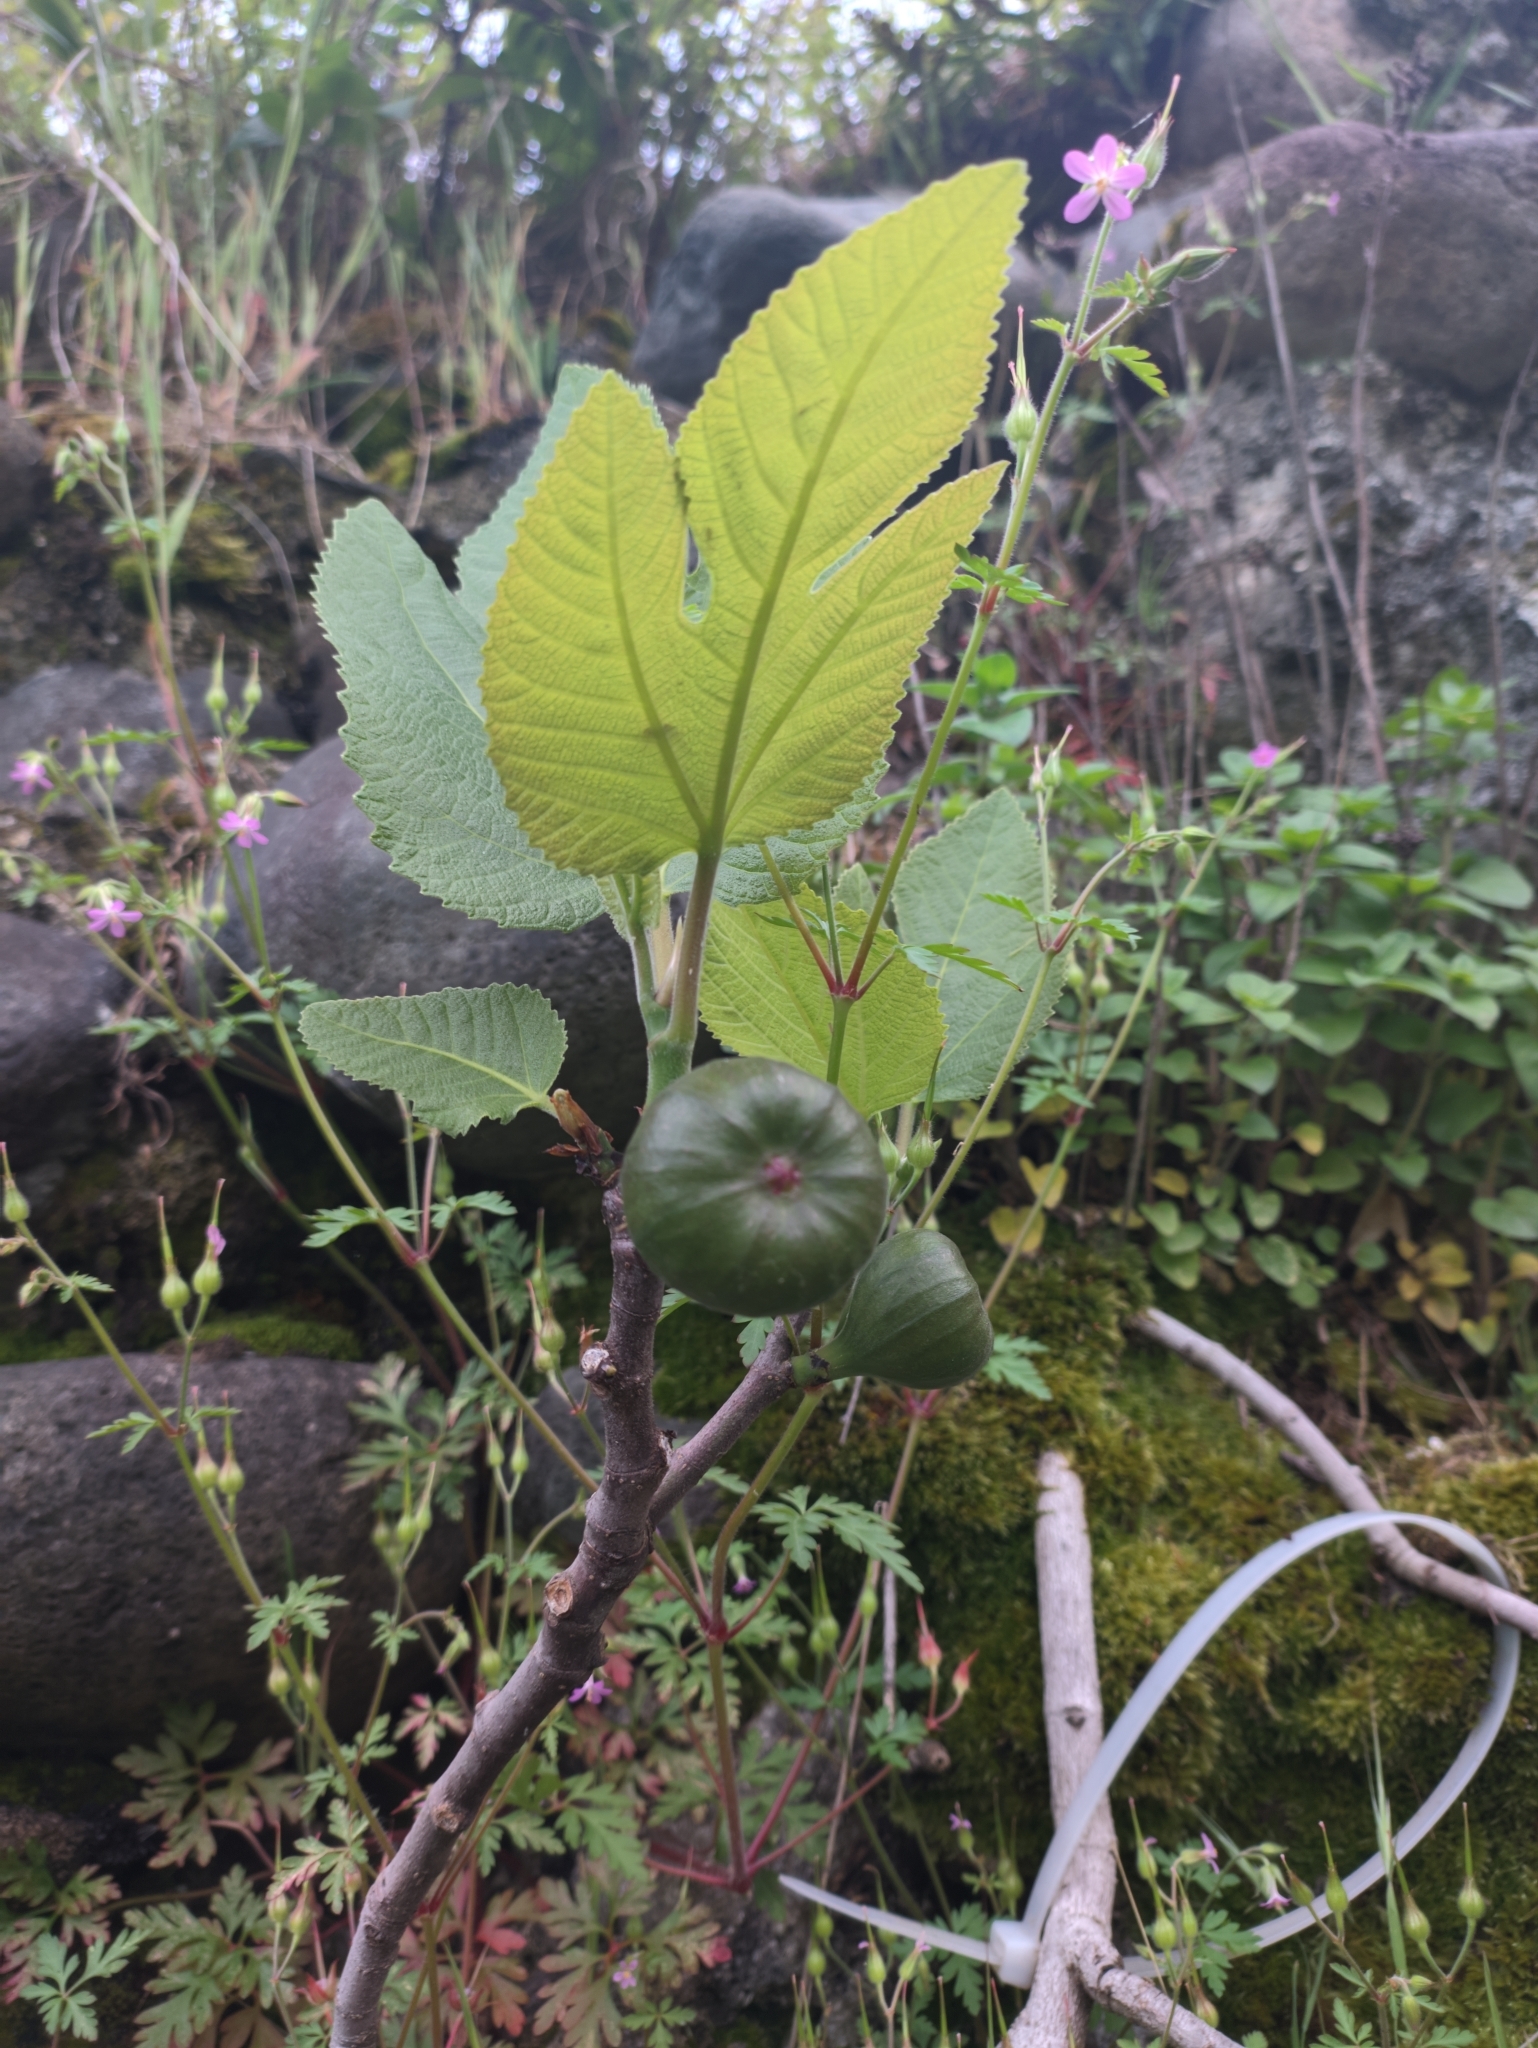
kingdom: Plantae
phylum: Tracheophyta
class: Magnoliopsida
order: Rosales
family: Moraceae
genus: Ficus
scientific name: Ficus carica
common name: Fig
